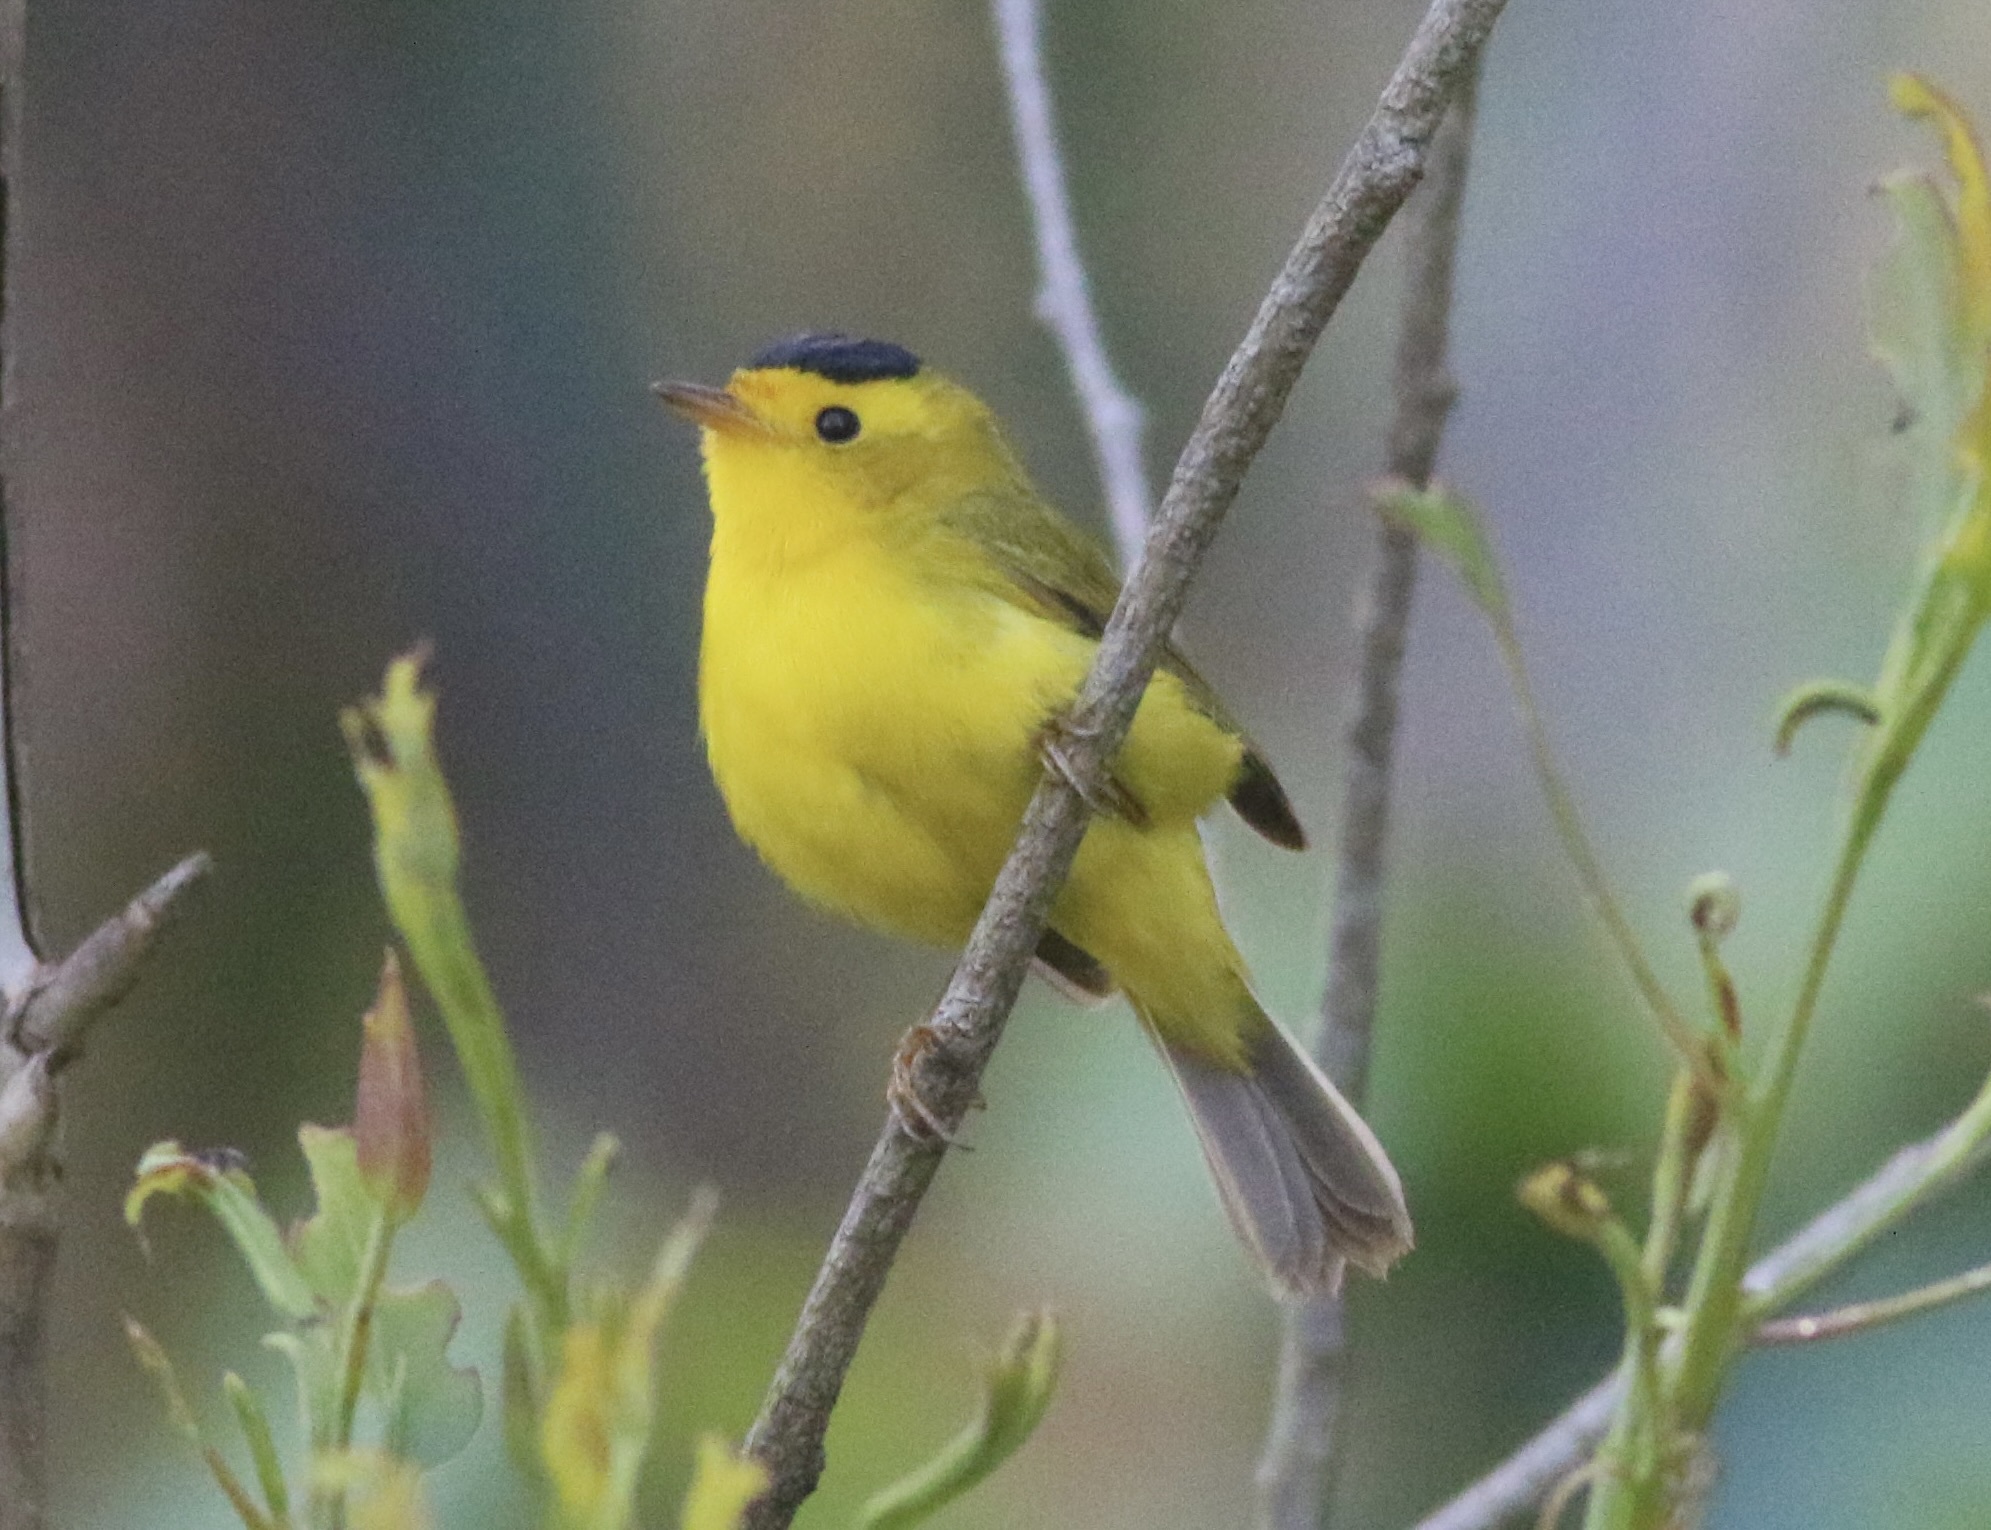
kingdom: Animalia
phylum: Chordata
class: Aves
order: Passeriformes
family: Parulidae
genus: Cardellina
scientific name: Cardellina pusilla
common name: Wilson's warbler
